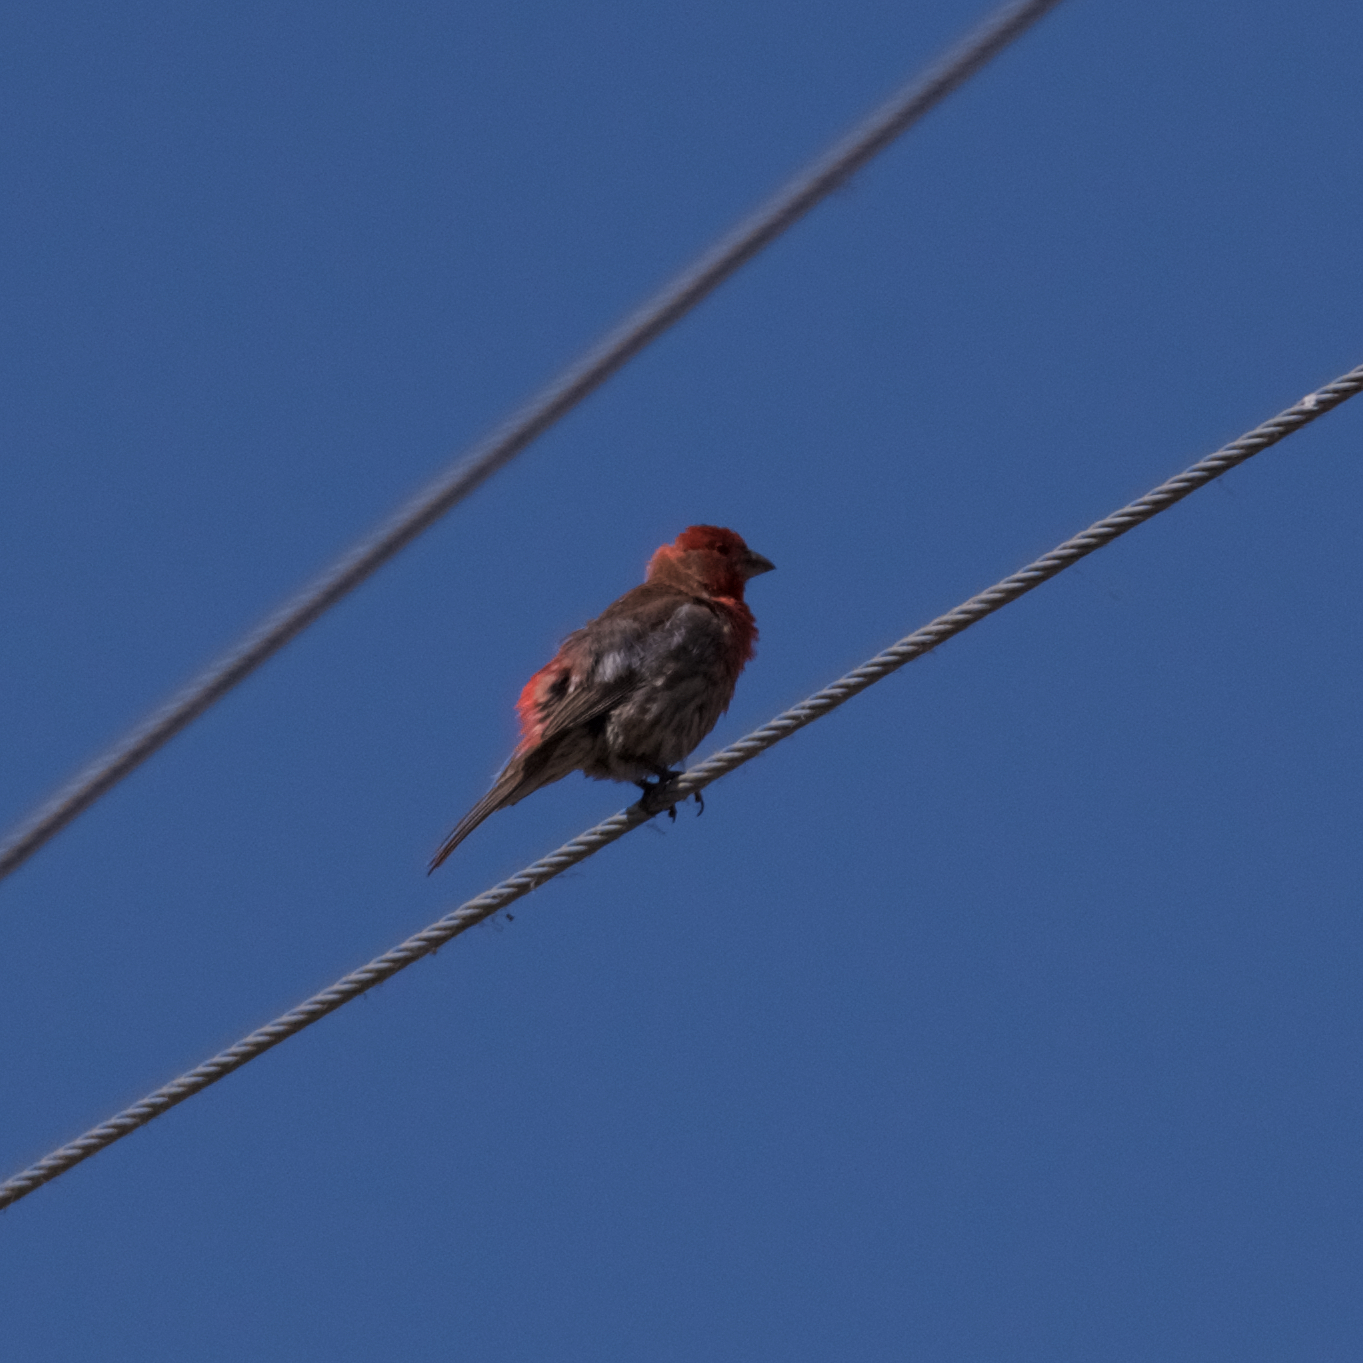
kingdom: Animalia
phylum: Chordata
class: Aves
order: Passeriformes
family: Fringillidae
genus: Haemorhous
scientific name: Haemorhous mexicanus
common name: House finch
